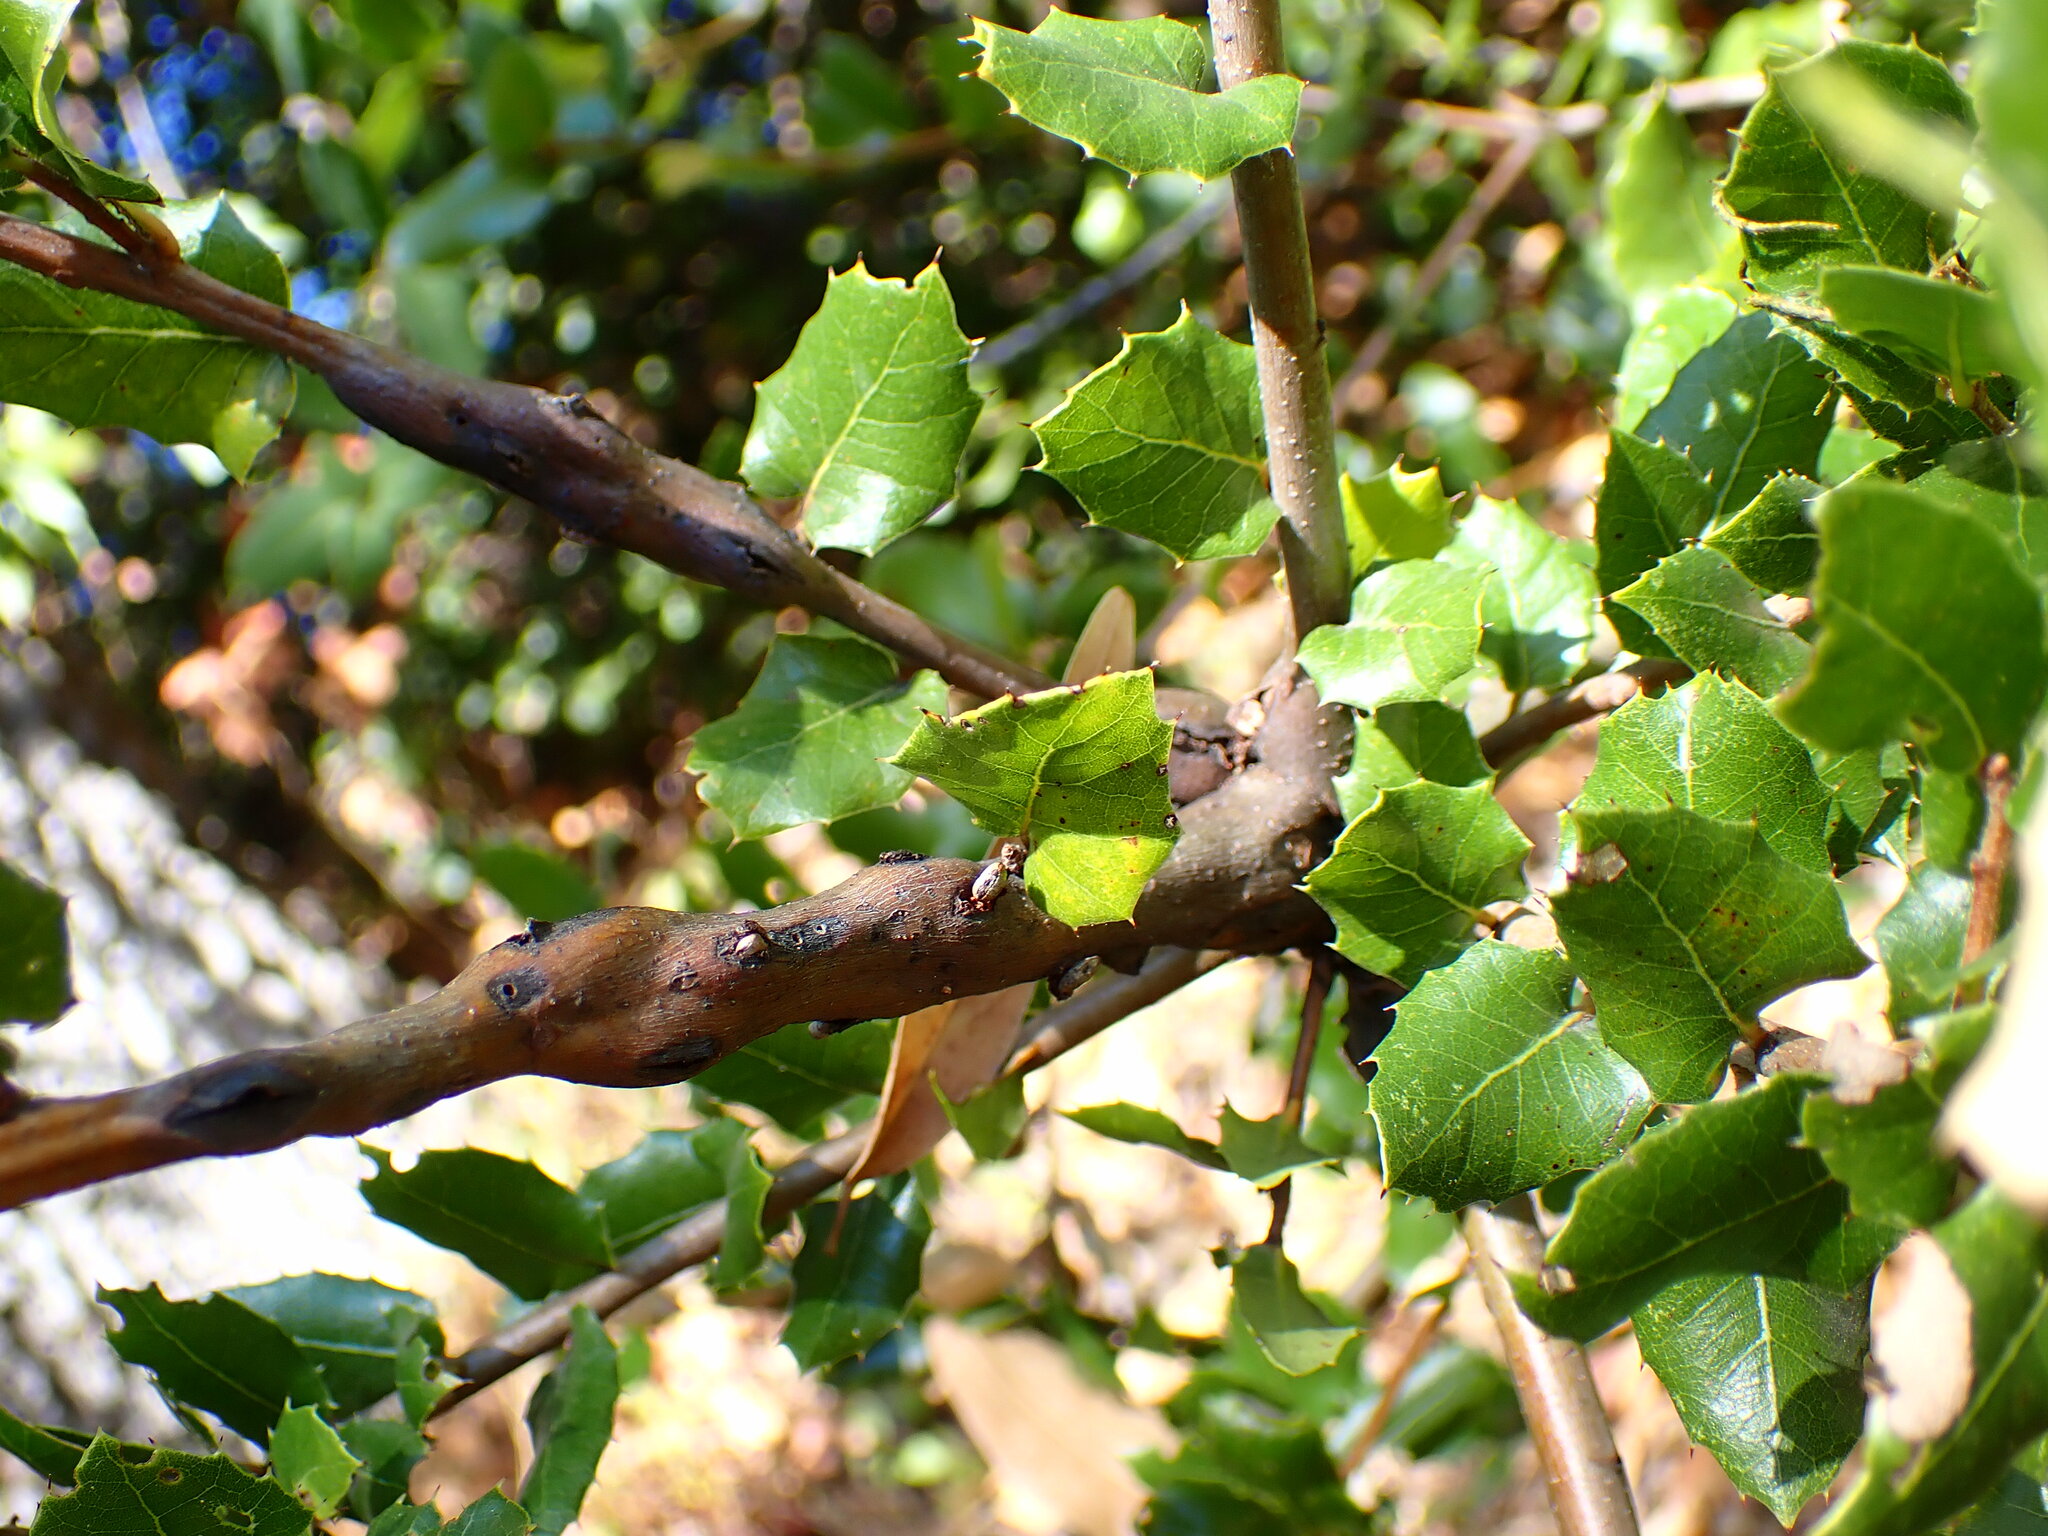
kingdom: Animalia
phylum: Arthropoda
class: Insecta
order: Hymenoptera
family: Cynipidae
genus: Callirhytis
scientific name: Callirhytis
